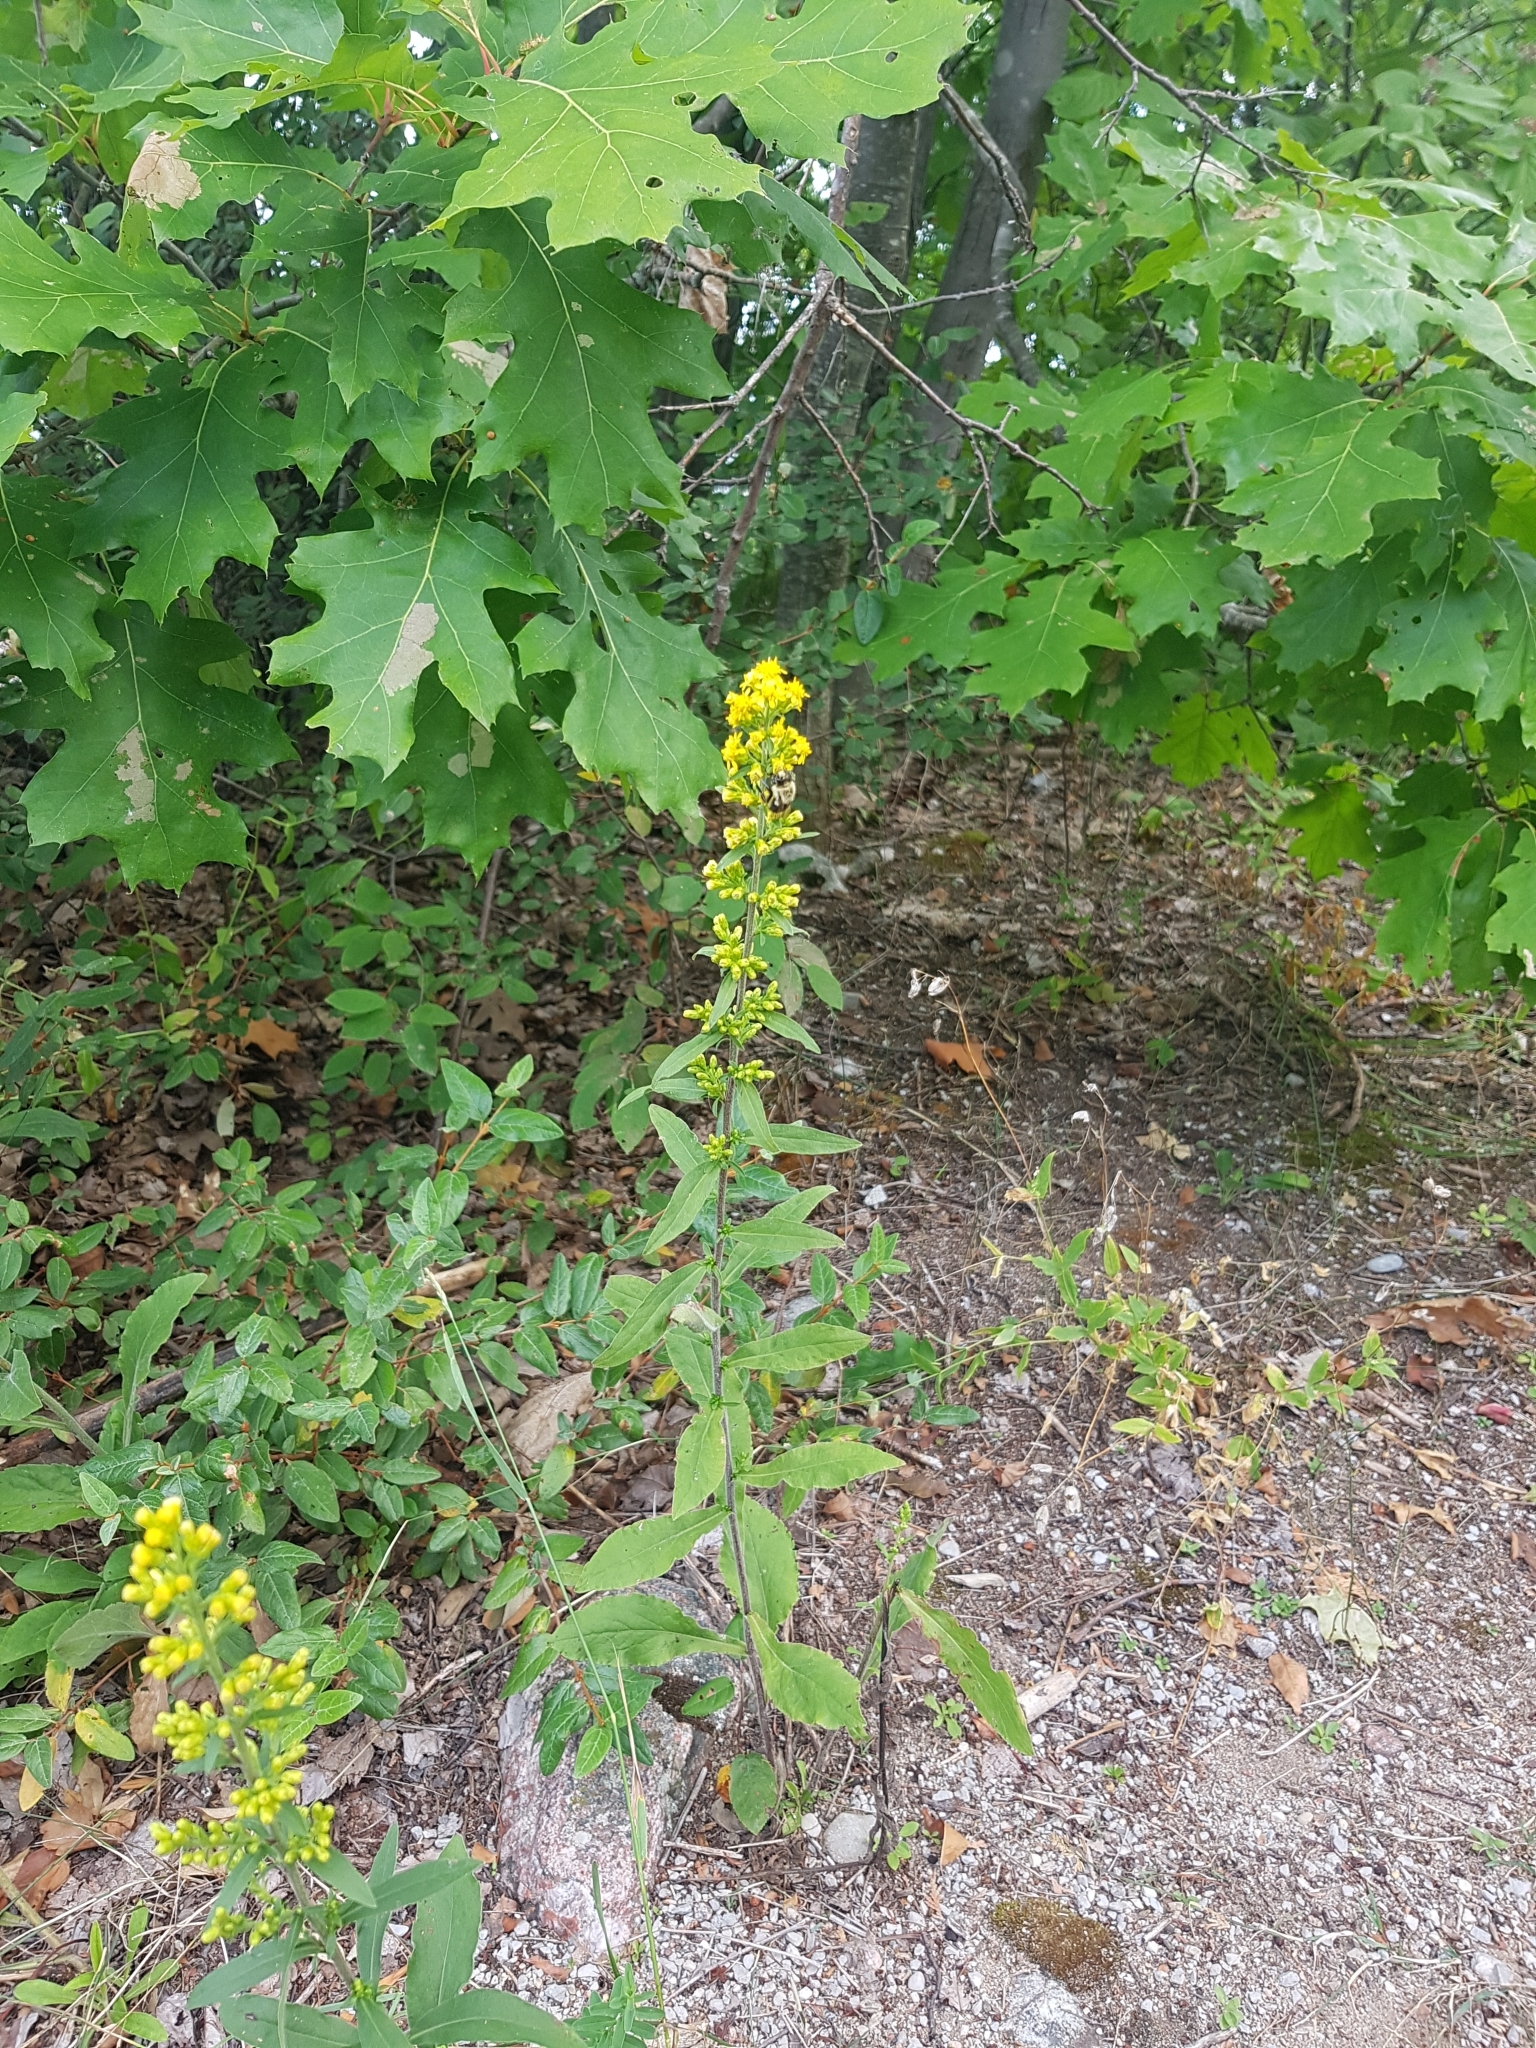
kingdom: Plantae
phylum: Tracheophyta
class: Magnoliopsida
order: Asterales
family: Asteraceae
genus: Solidago
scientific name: Solidago hispida
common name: Hairy goldenrod
